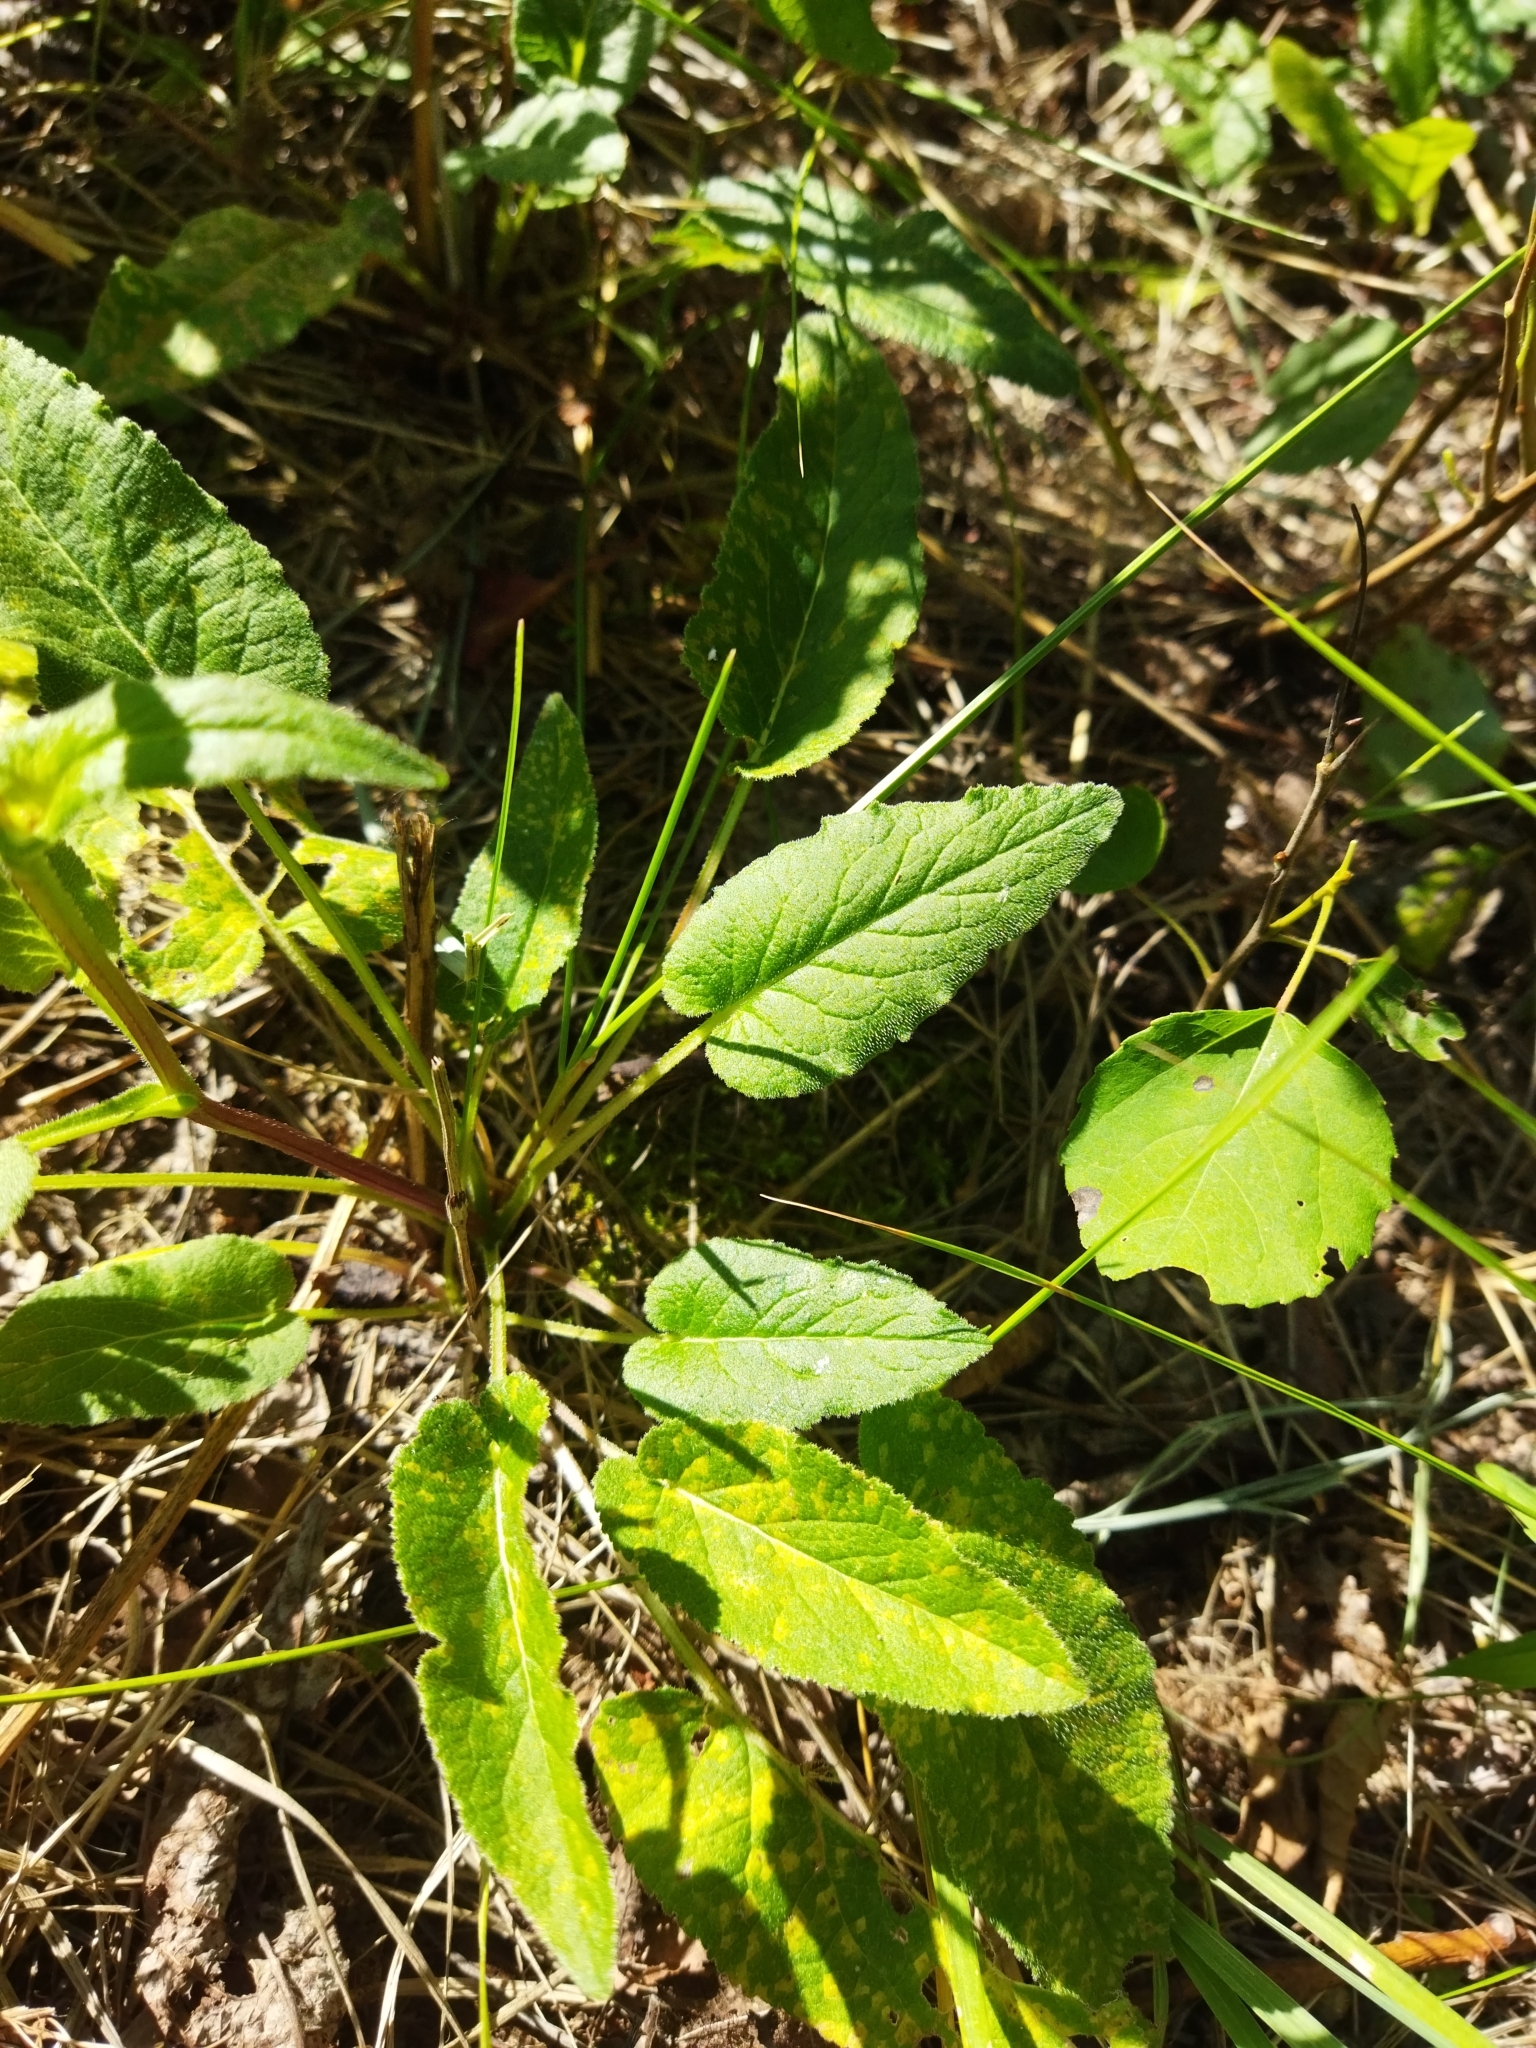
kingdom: Plantae
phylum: Tracheophyta
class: Magnoliopsida
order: Asterales
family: Campanulaceae
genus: Campanula
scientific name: Campanula glomerata
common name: Clustered bellflower
